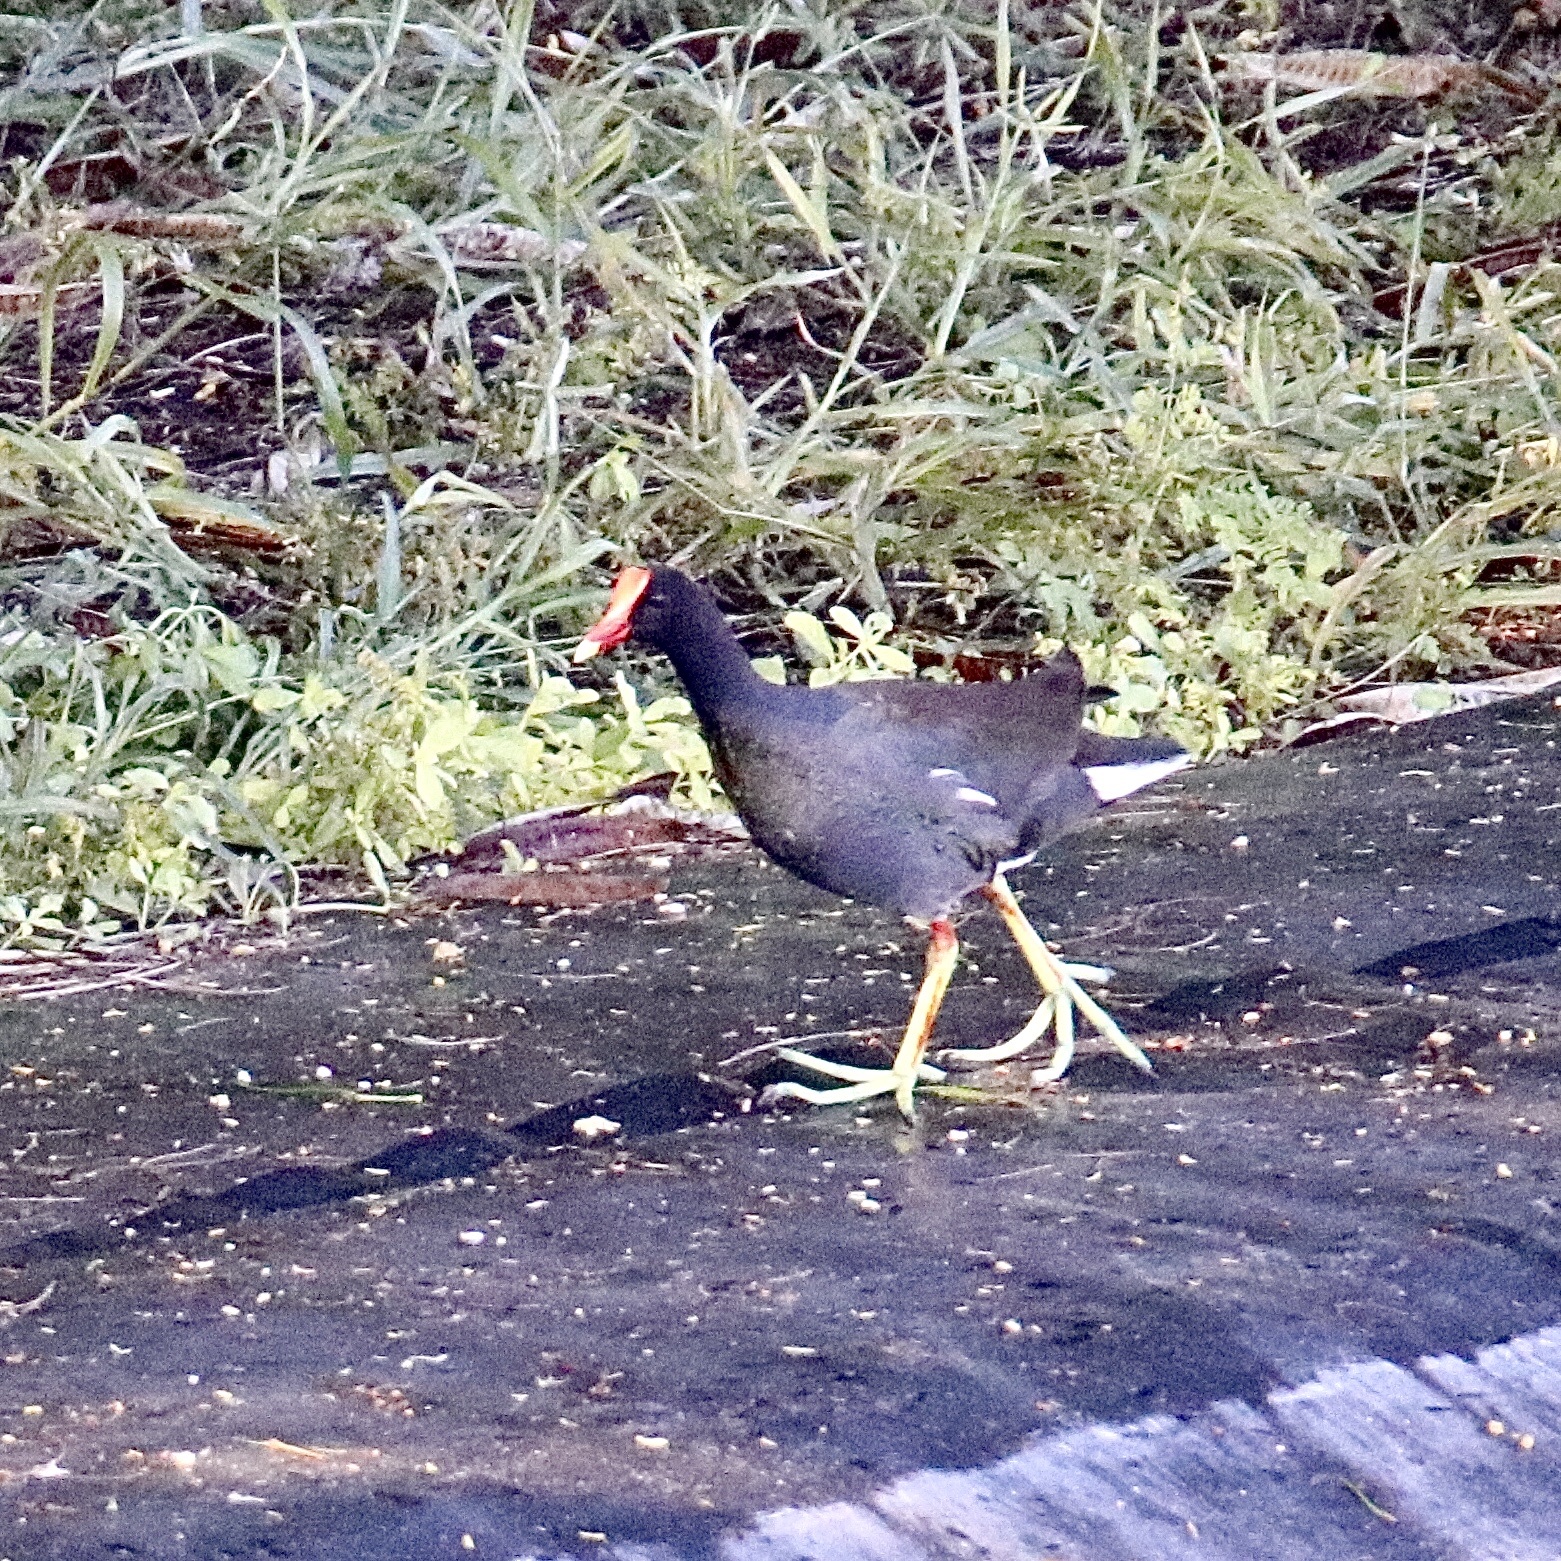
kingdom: Animalia
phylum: Chordata
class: Aves
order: Gruiformes
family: Rallidae
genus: Gallinula
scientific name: Gallinula chloropus
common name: Common moorhen
